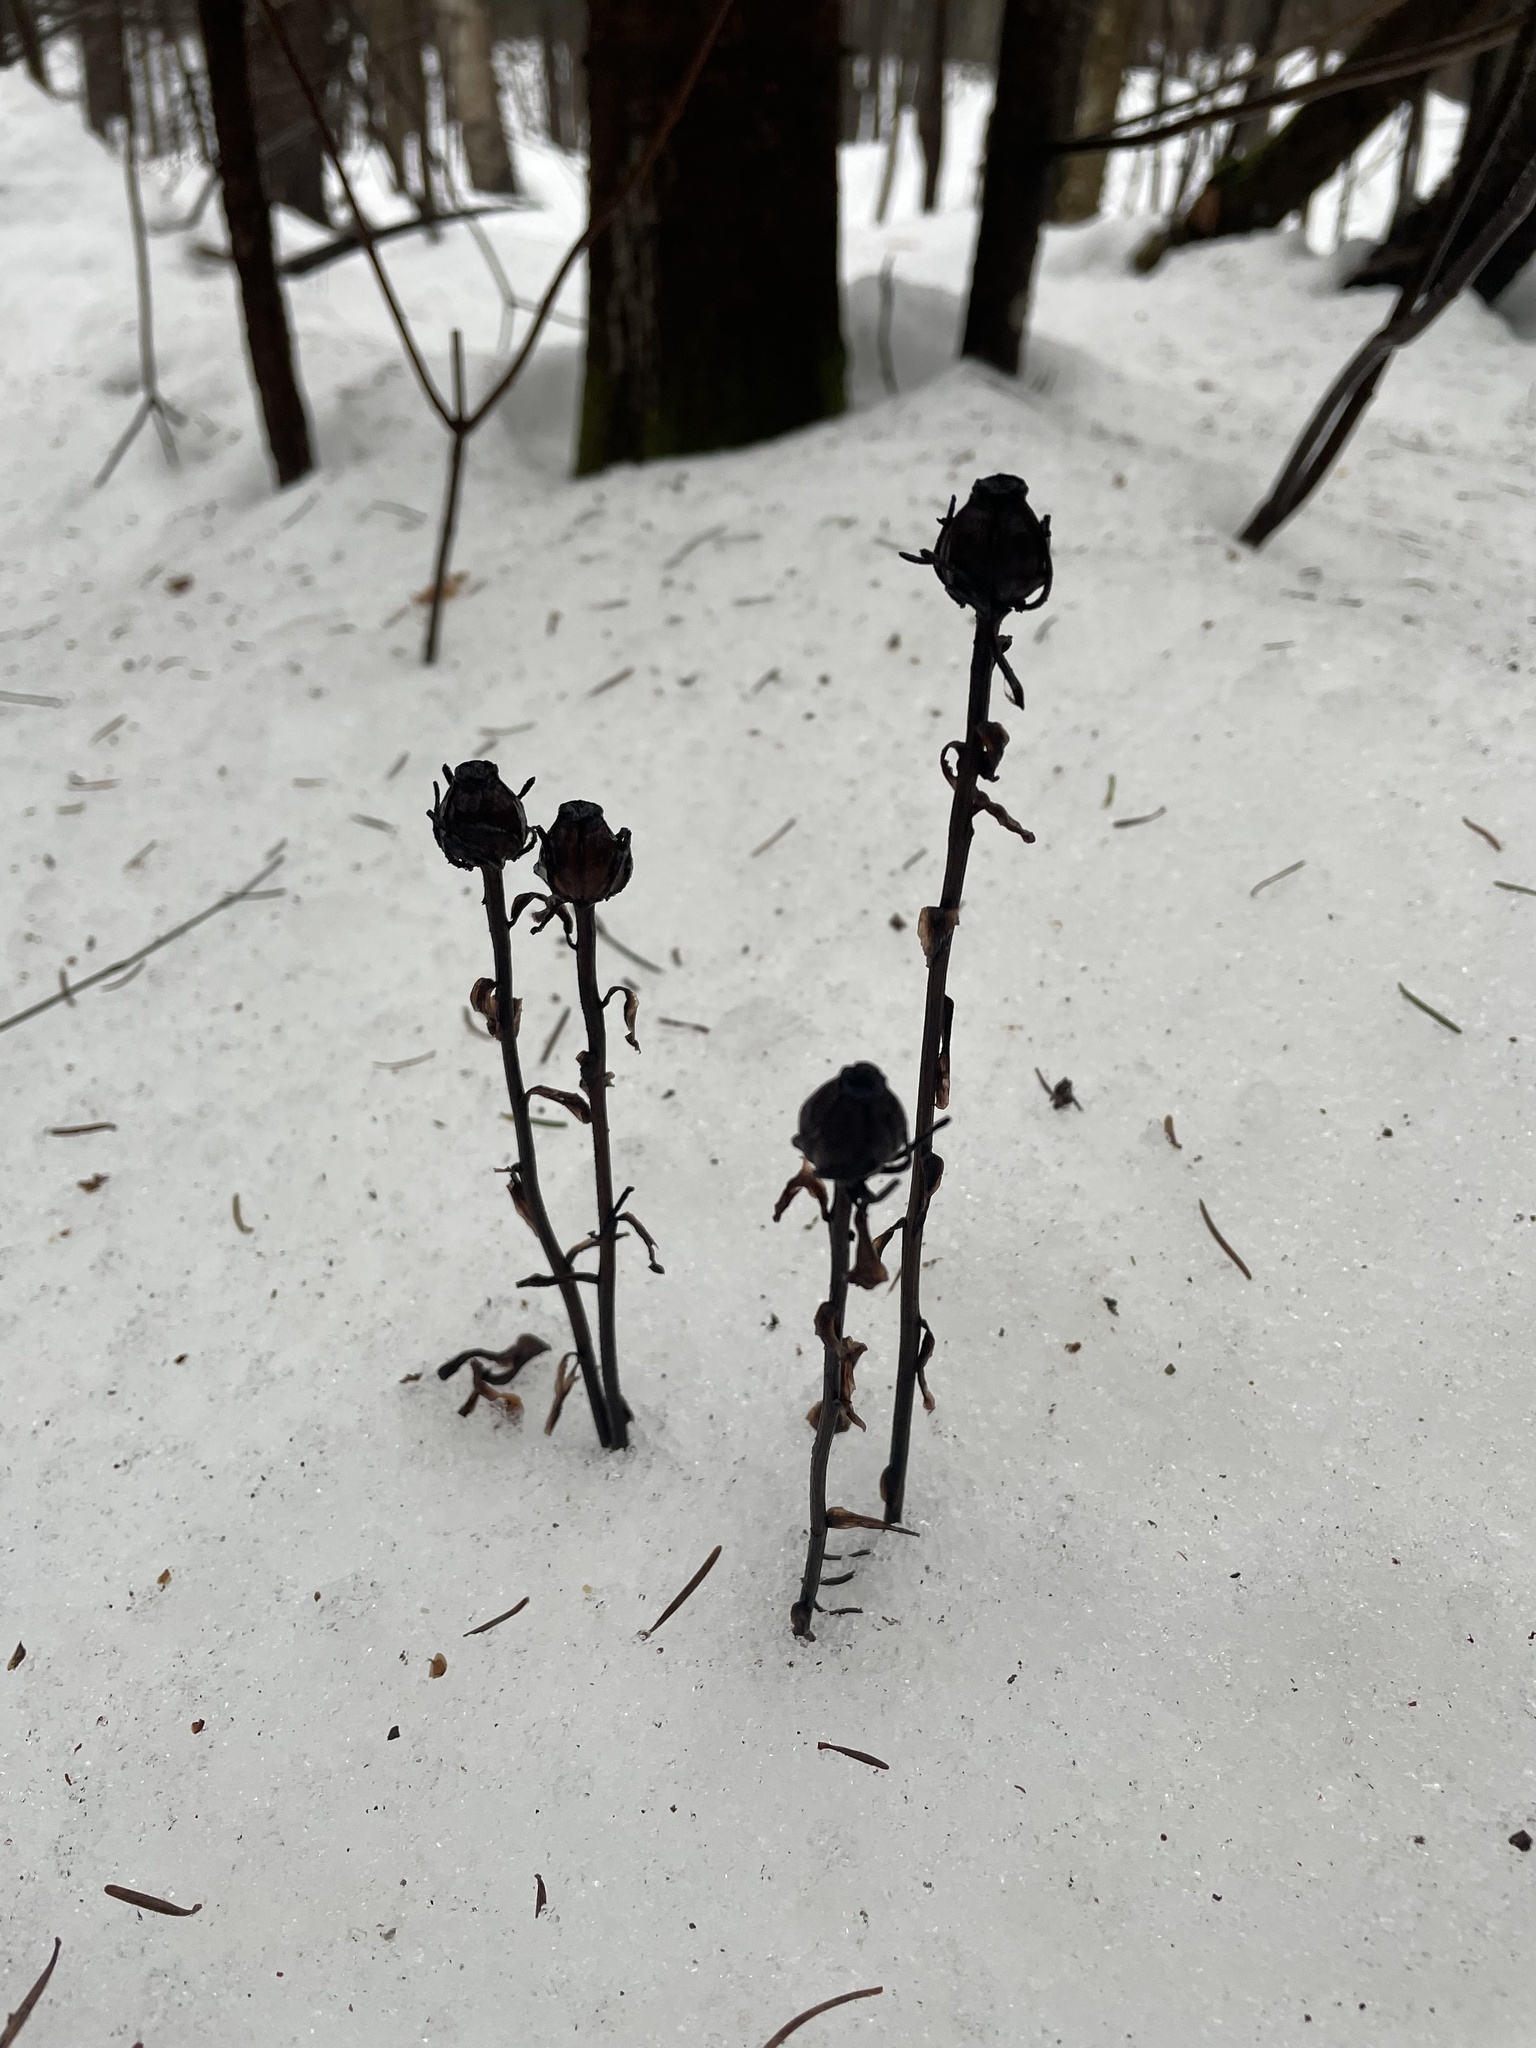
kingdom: Plantae
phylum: Tracheophyta
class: Magnoliopsida
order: Ericales
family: Ericaceae
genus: Monotropa
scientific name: Monotropa uniflora
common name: Convulsion root
